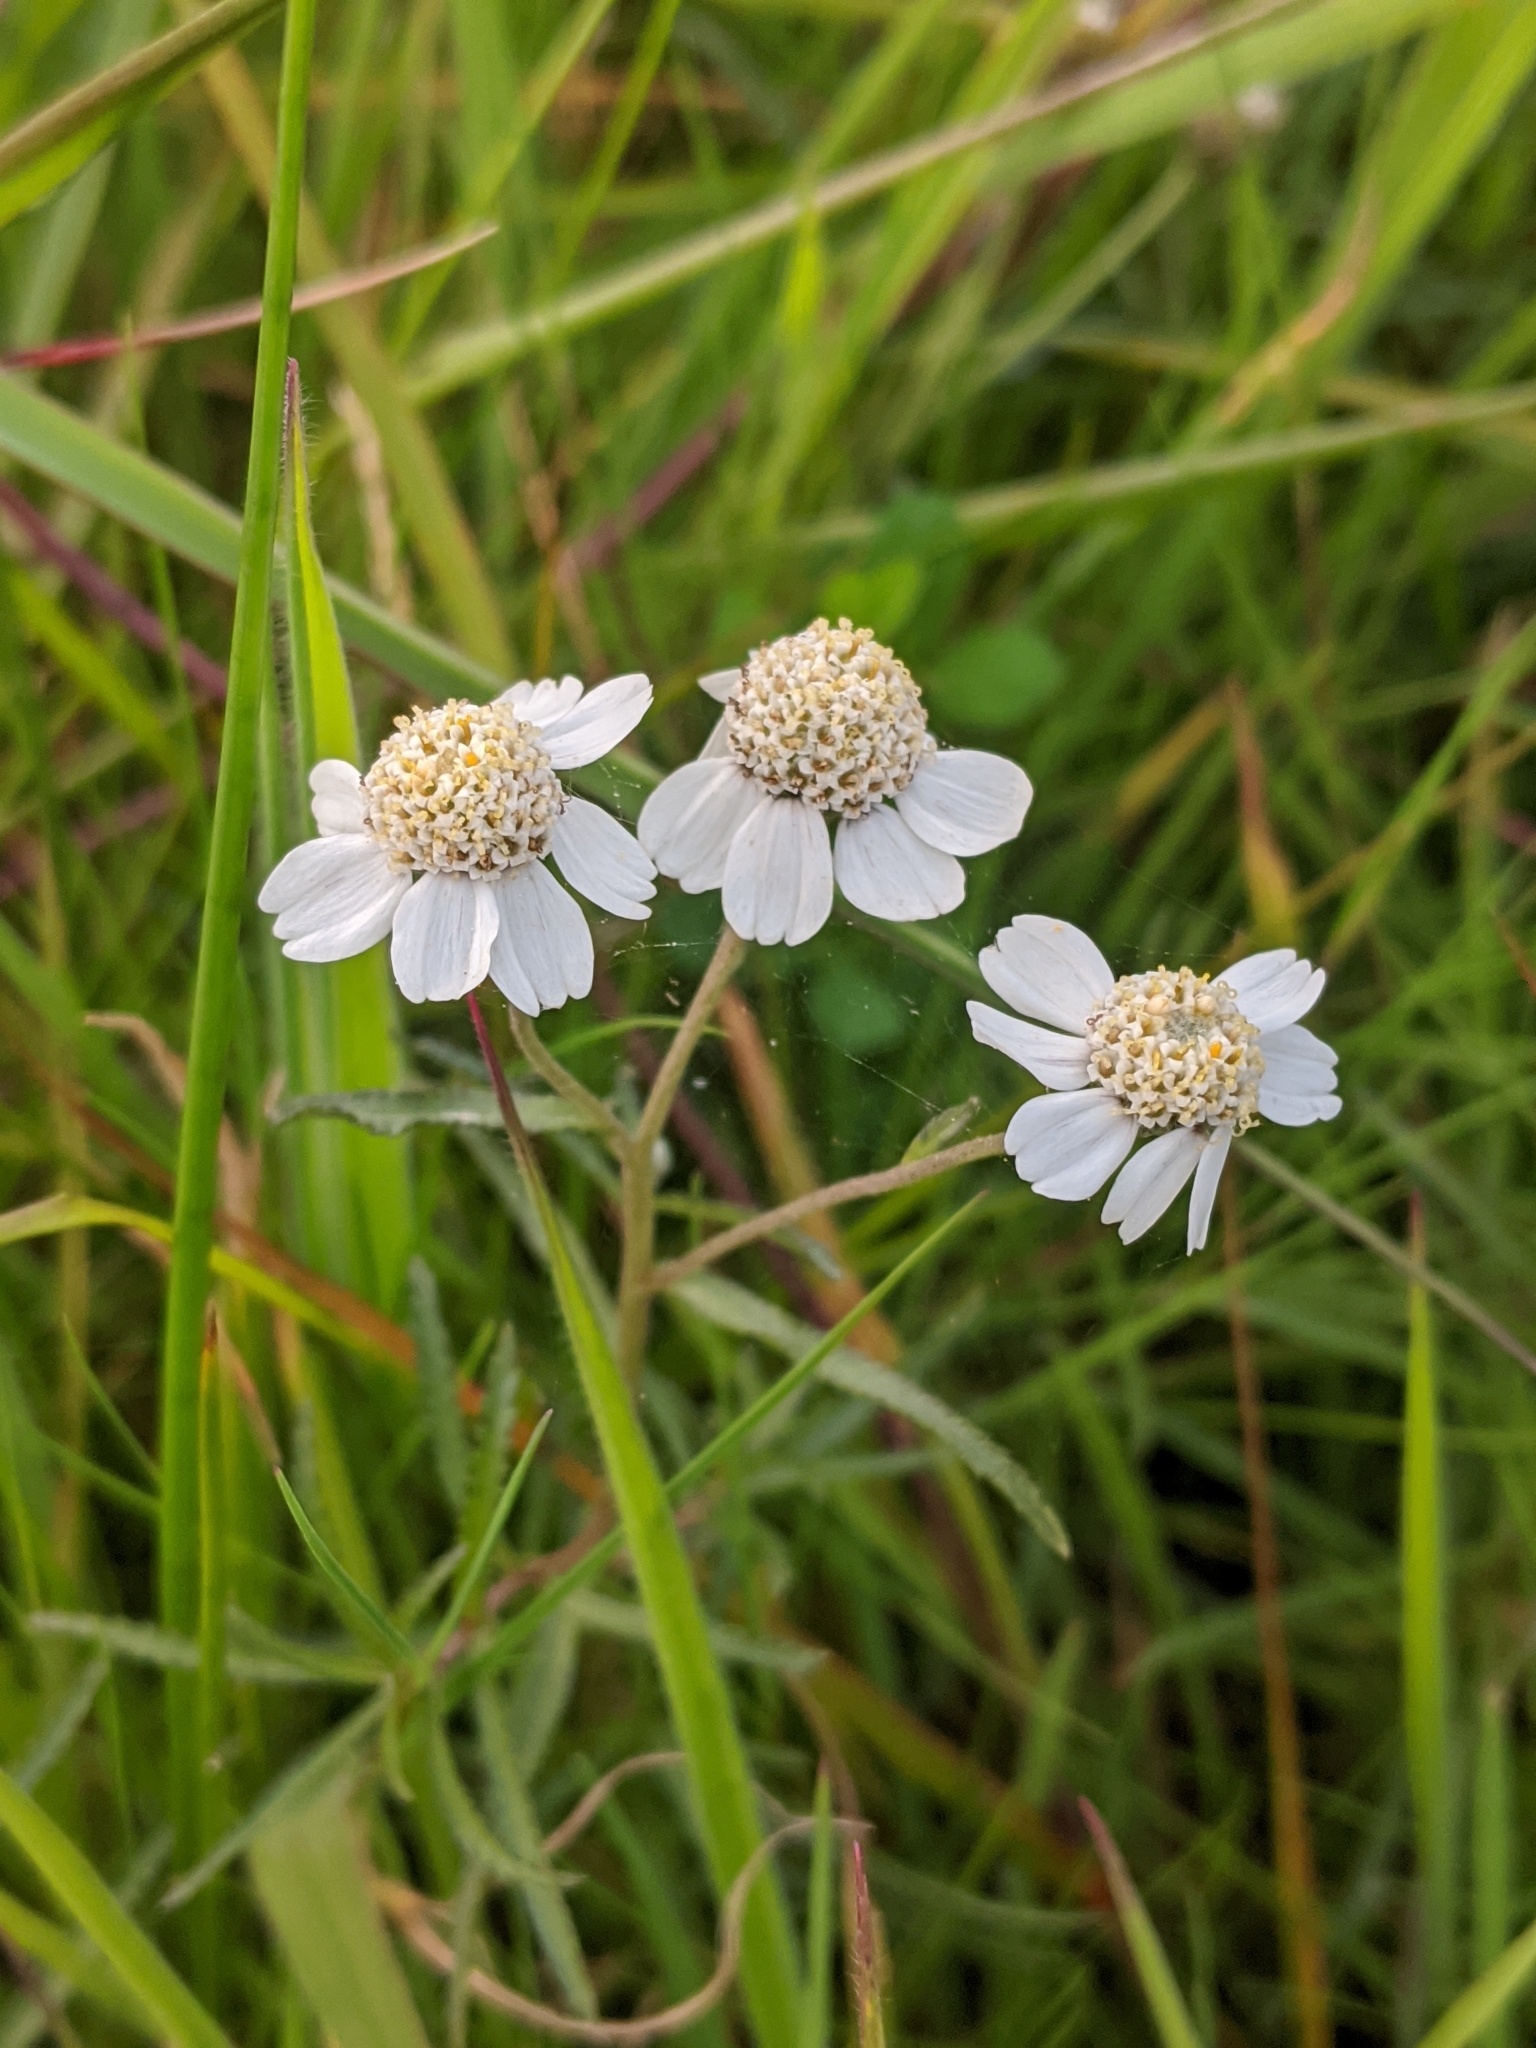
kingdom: Plantae
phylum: Tracheophyta
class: Magnoliopsida
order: Asterales
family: Asteraceae
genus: Achillea
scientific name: Achillea ptarmica
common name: Sneezeweed
